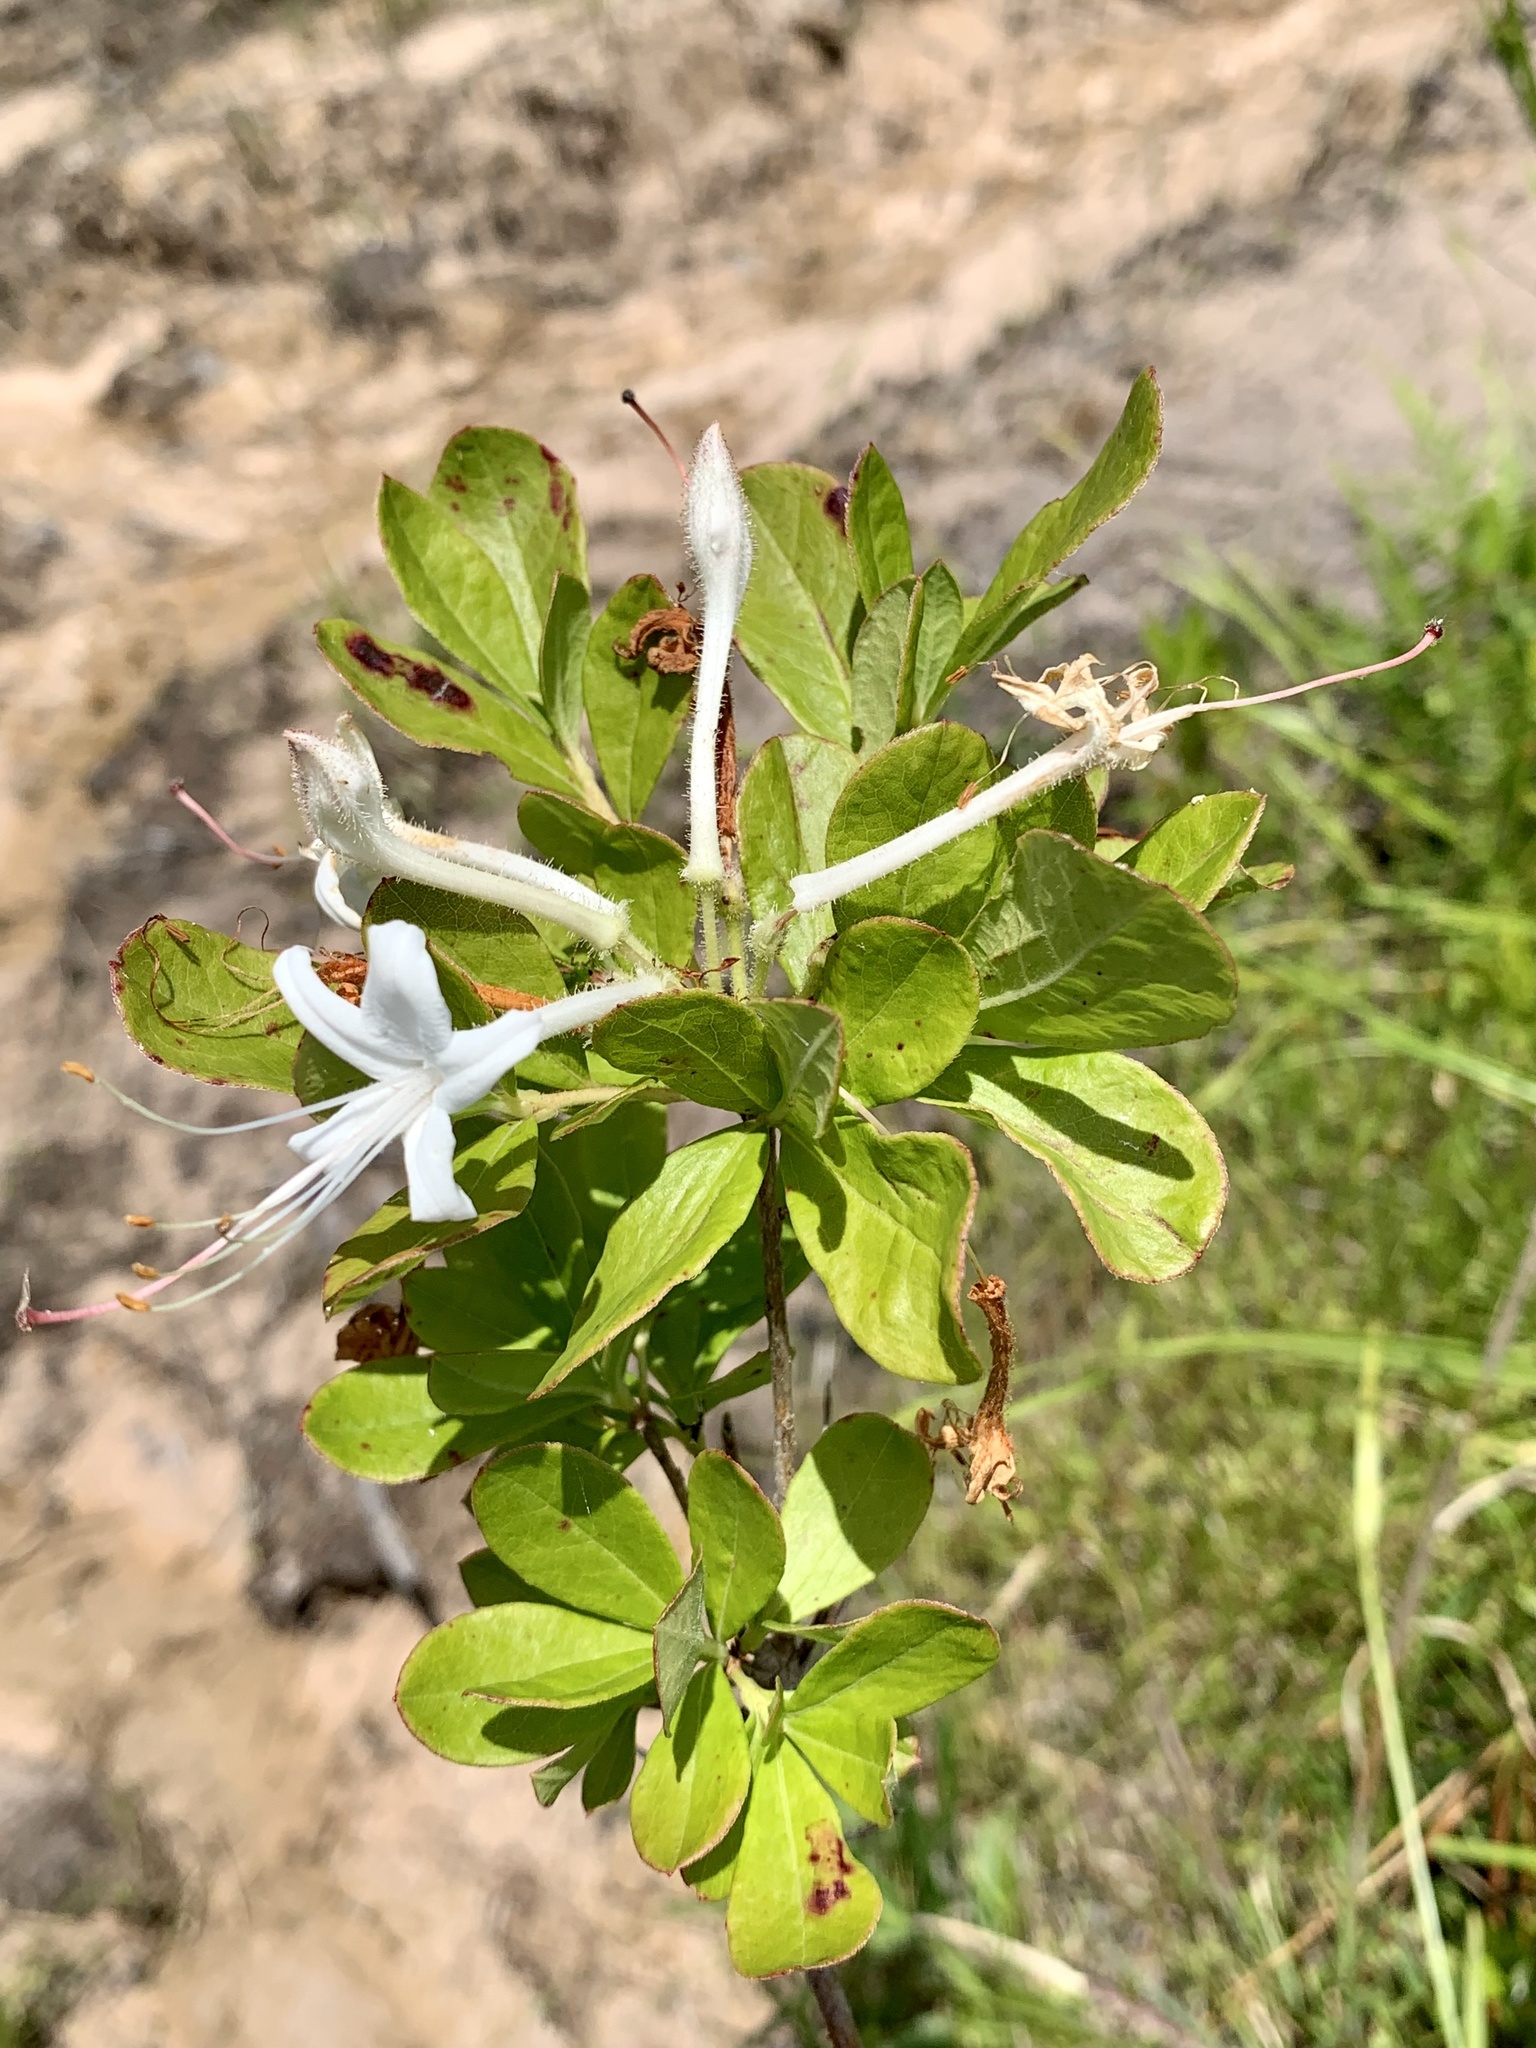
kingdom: Plantae
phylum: Tracheophyta
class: Magnoliopsida
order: Ericales
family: Ericaceae
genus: Rhododendron
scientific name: Rhododendron viscosum
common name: Clammy azalea
